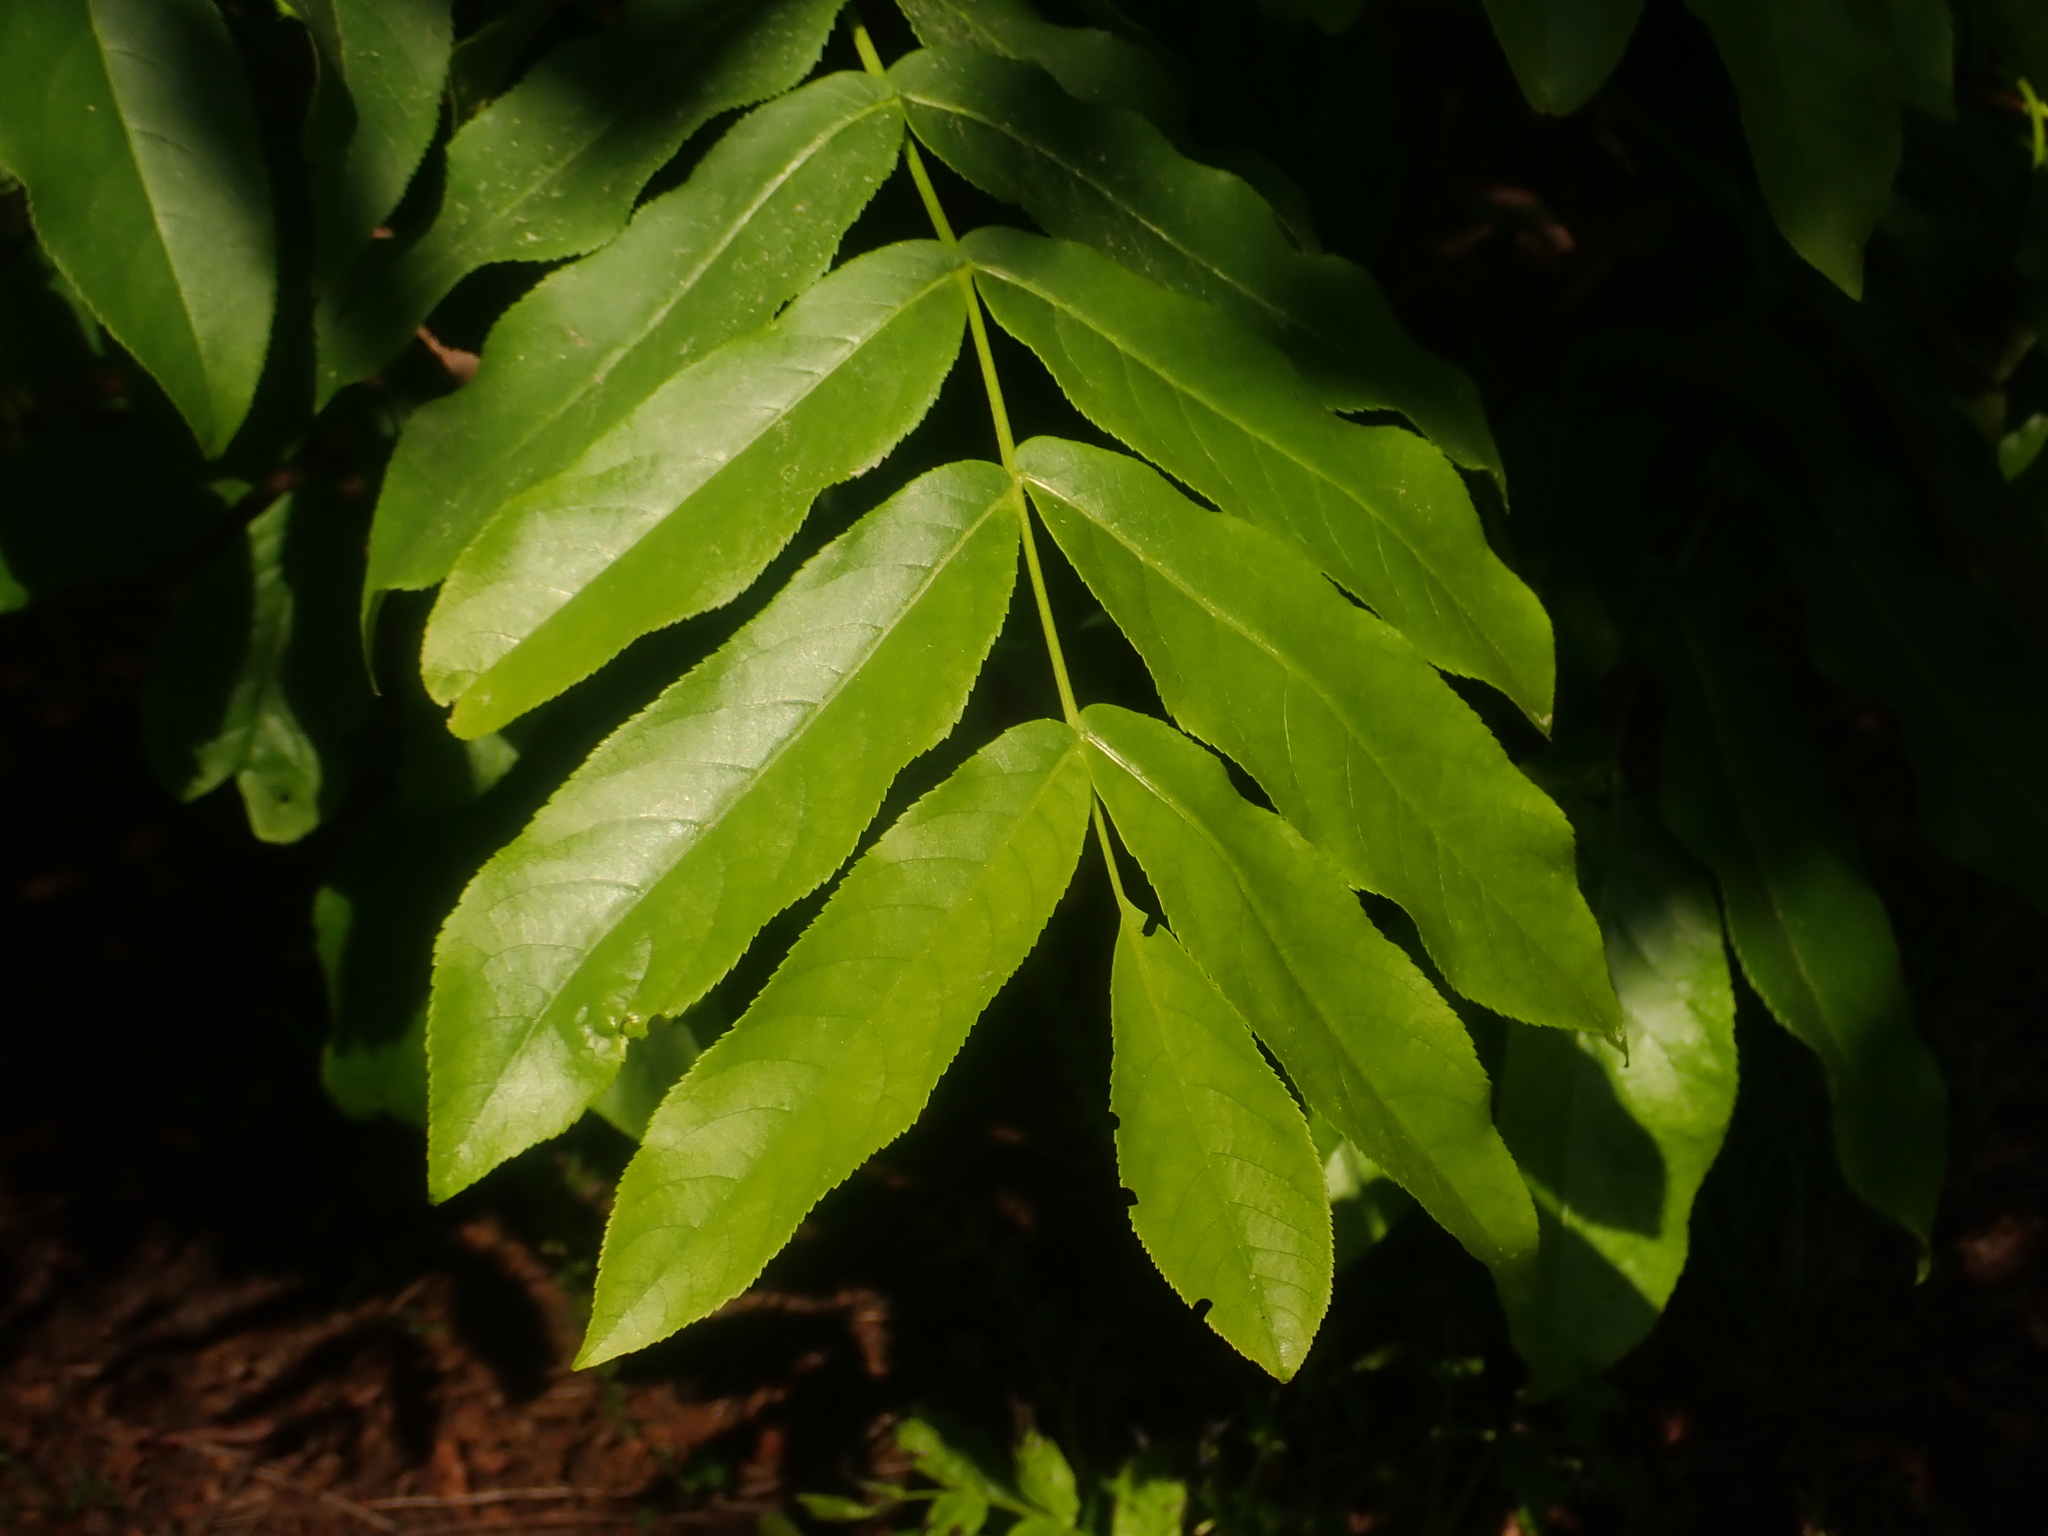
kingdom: Plantae
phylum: Tracheophyta
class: Magnoliopsida
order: Fagales
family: Juglandaceae
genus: Pterocarya
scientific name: Pterocarya fraxinifolia
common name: Caucasian wingnut
